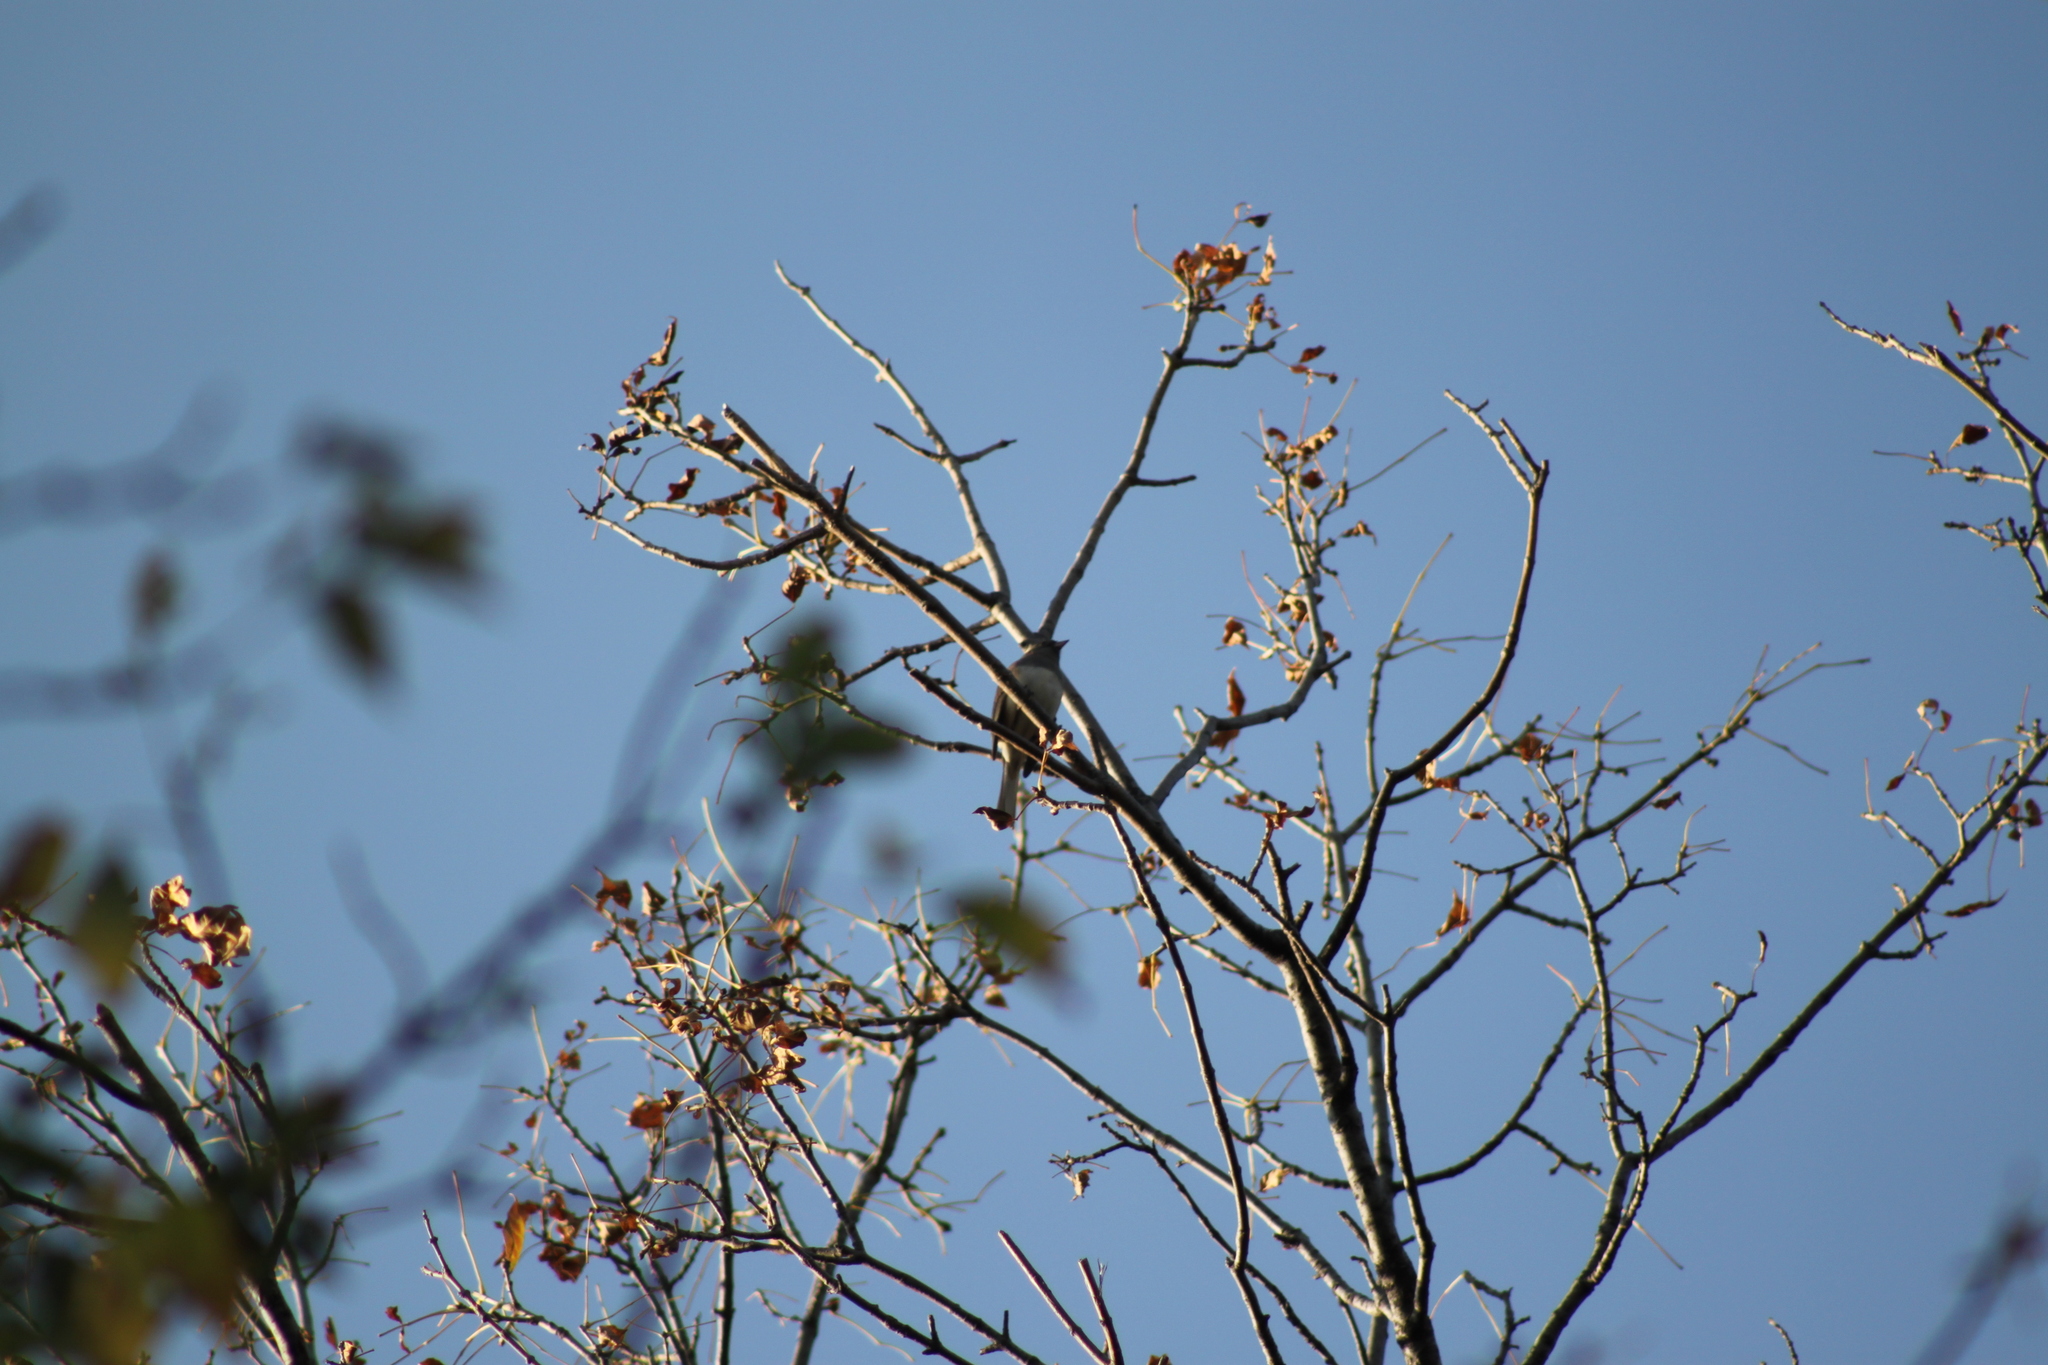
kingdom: Animalia
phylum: Chordata
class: Aves
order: Passeriformes
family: Passerellidae
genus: Junco
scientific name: Junco hyemalis
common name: Dark-eyed junco
